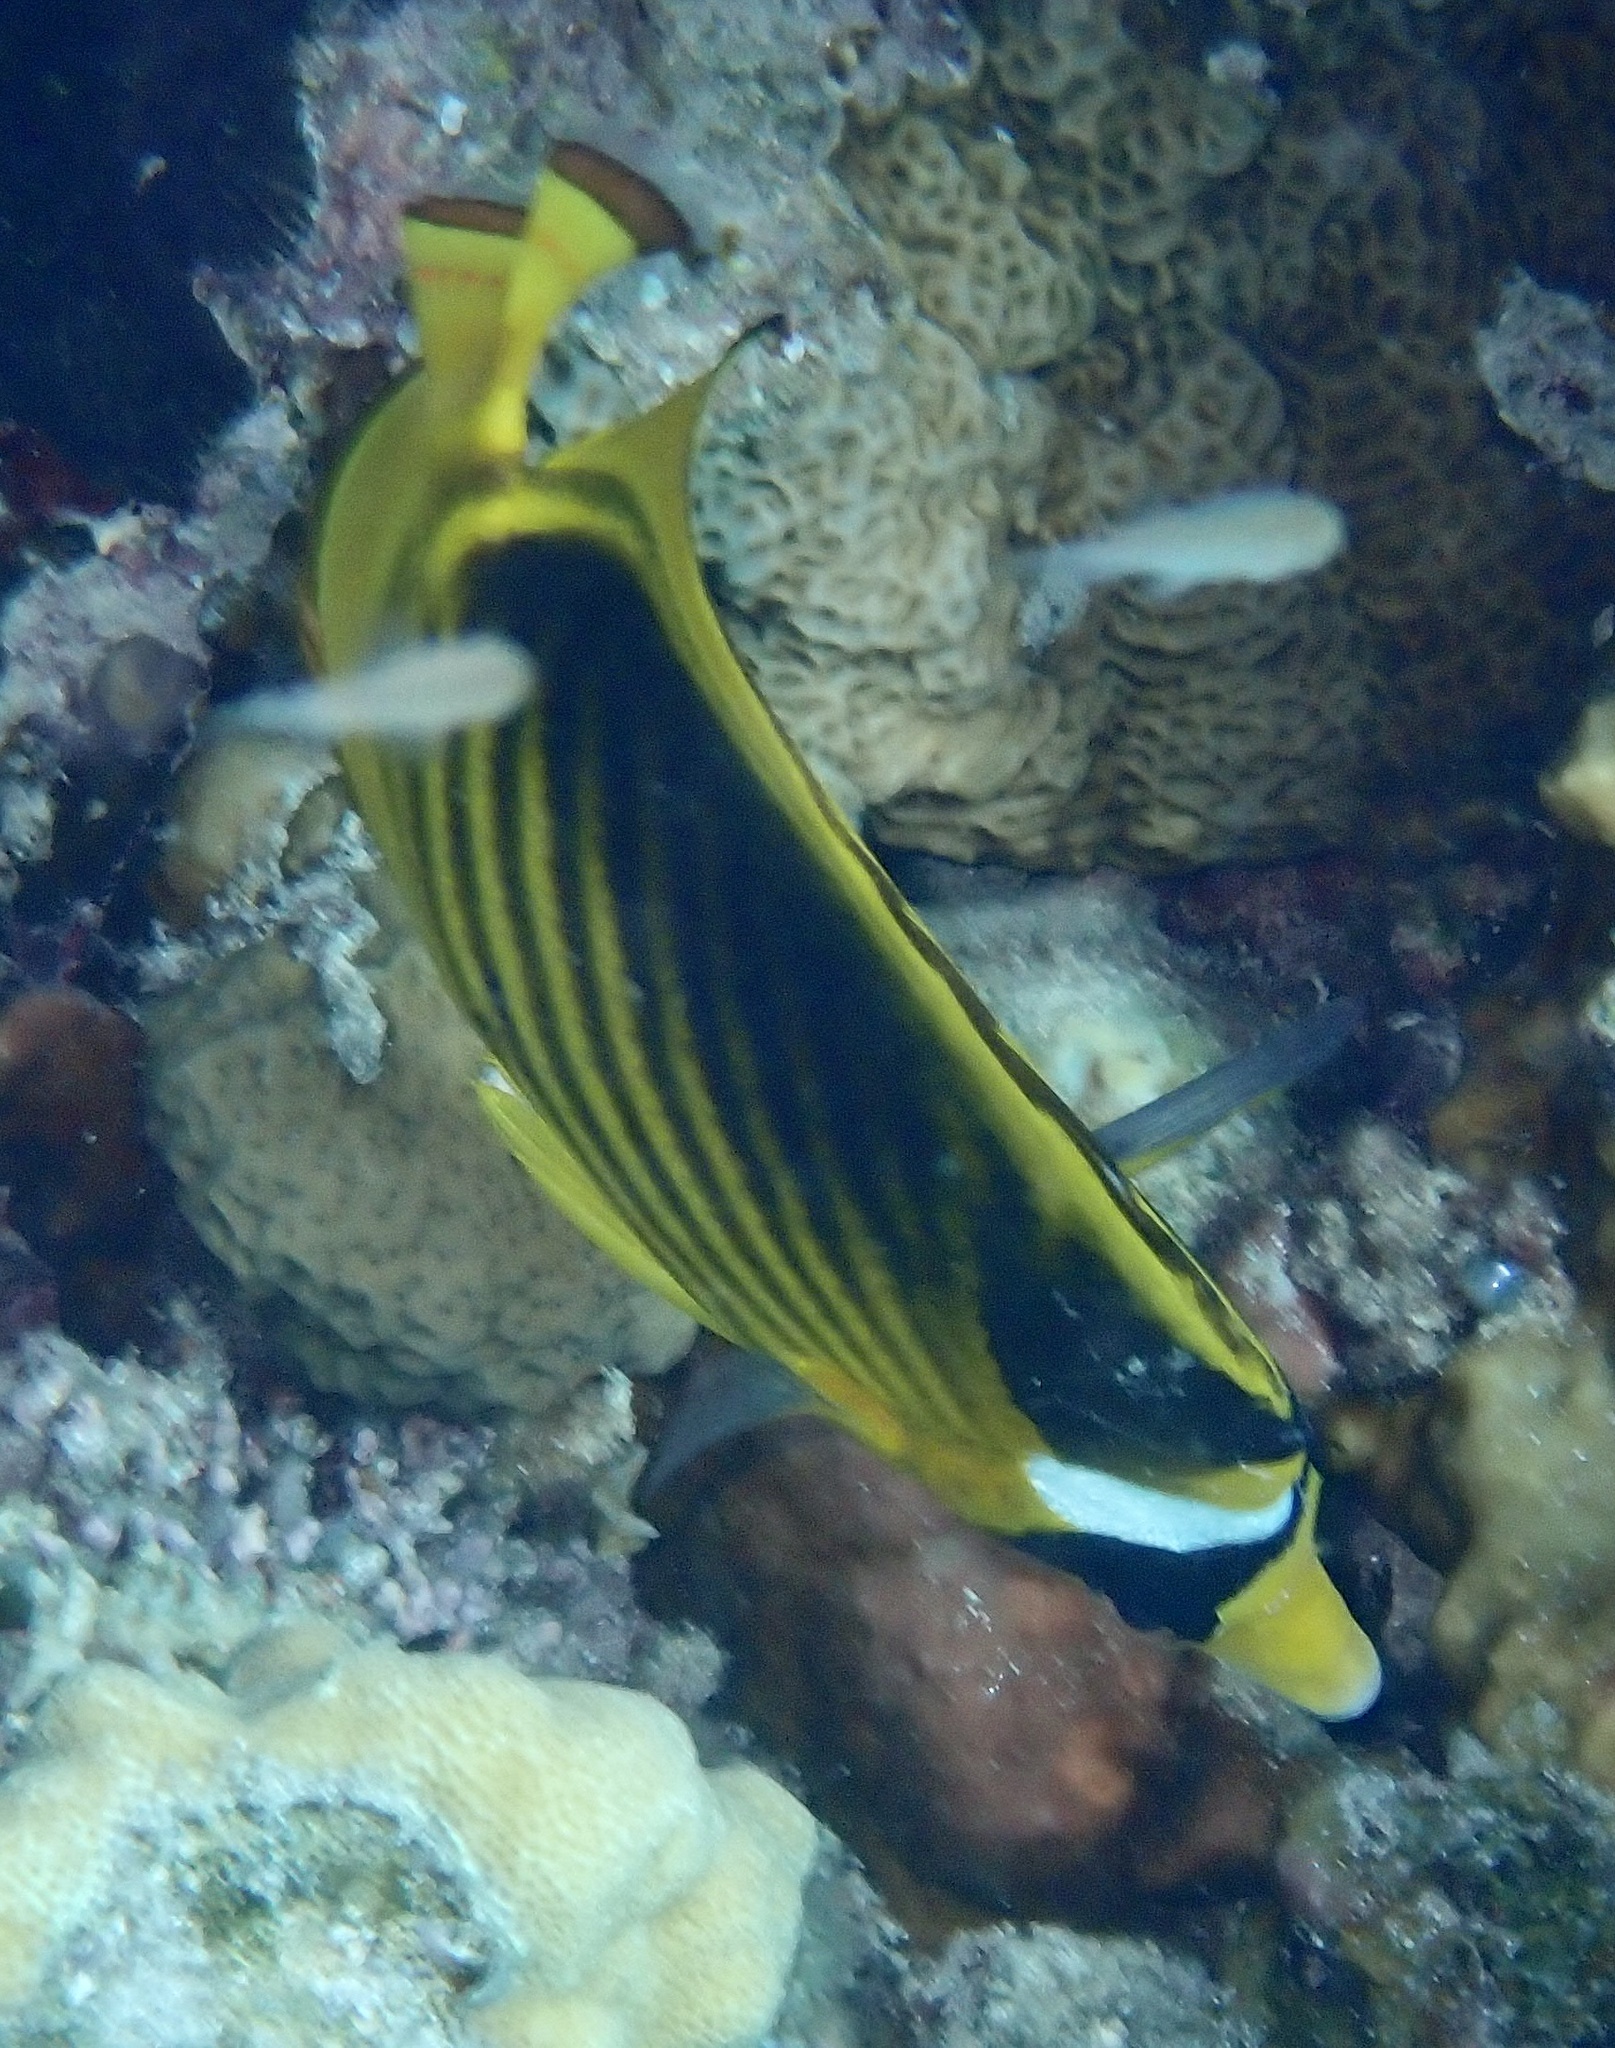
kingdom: Animalia
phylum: Chordata
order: Perciformes
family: Chaetodontidae
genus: Chaetodon
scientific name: Chaetodon fasciatus
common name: Diagonal butterflyfish
